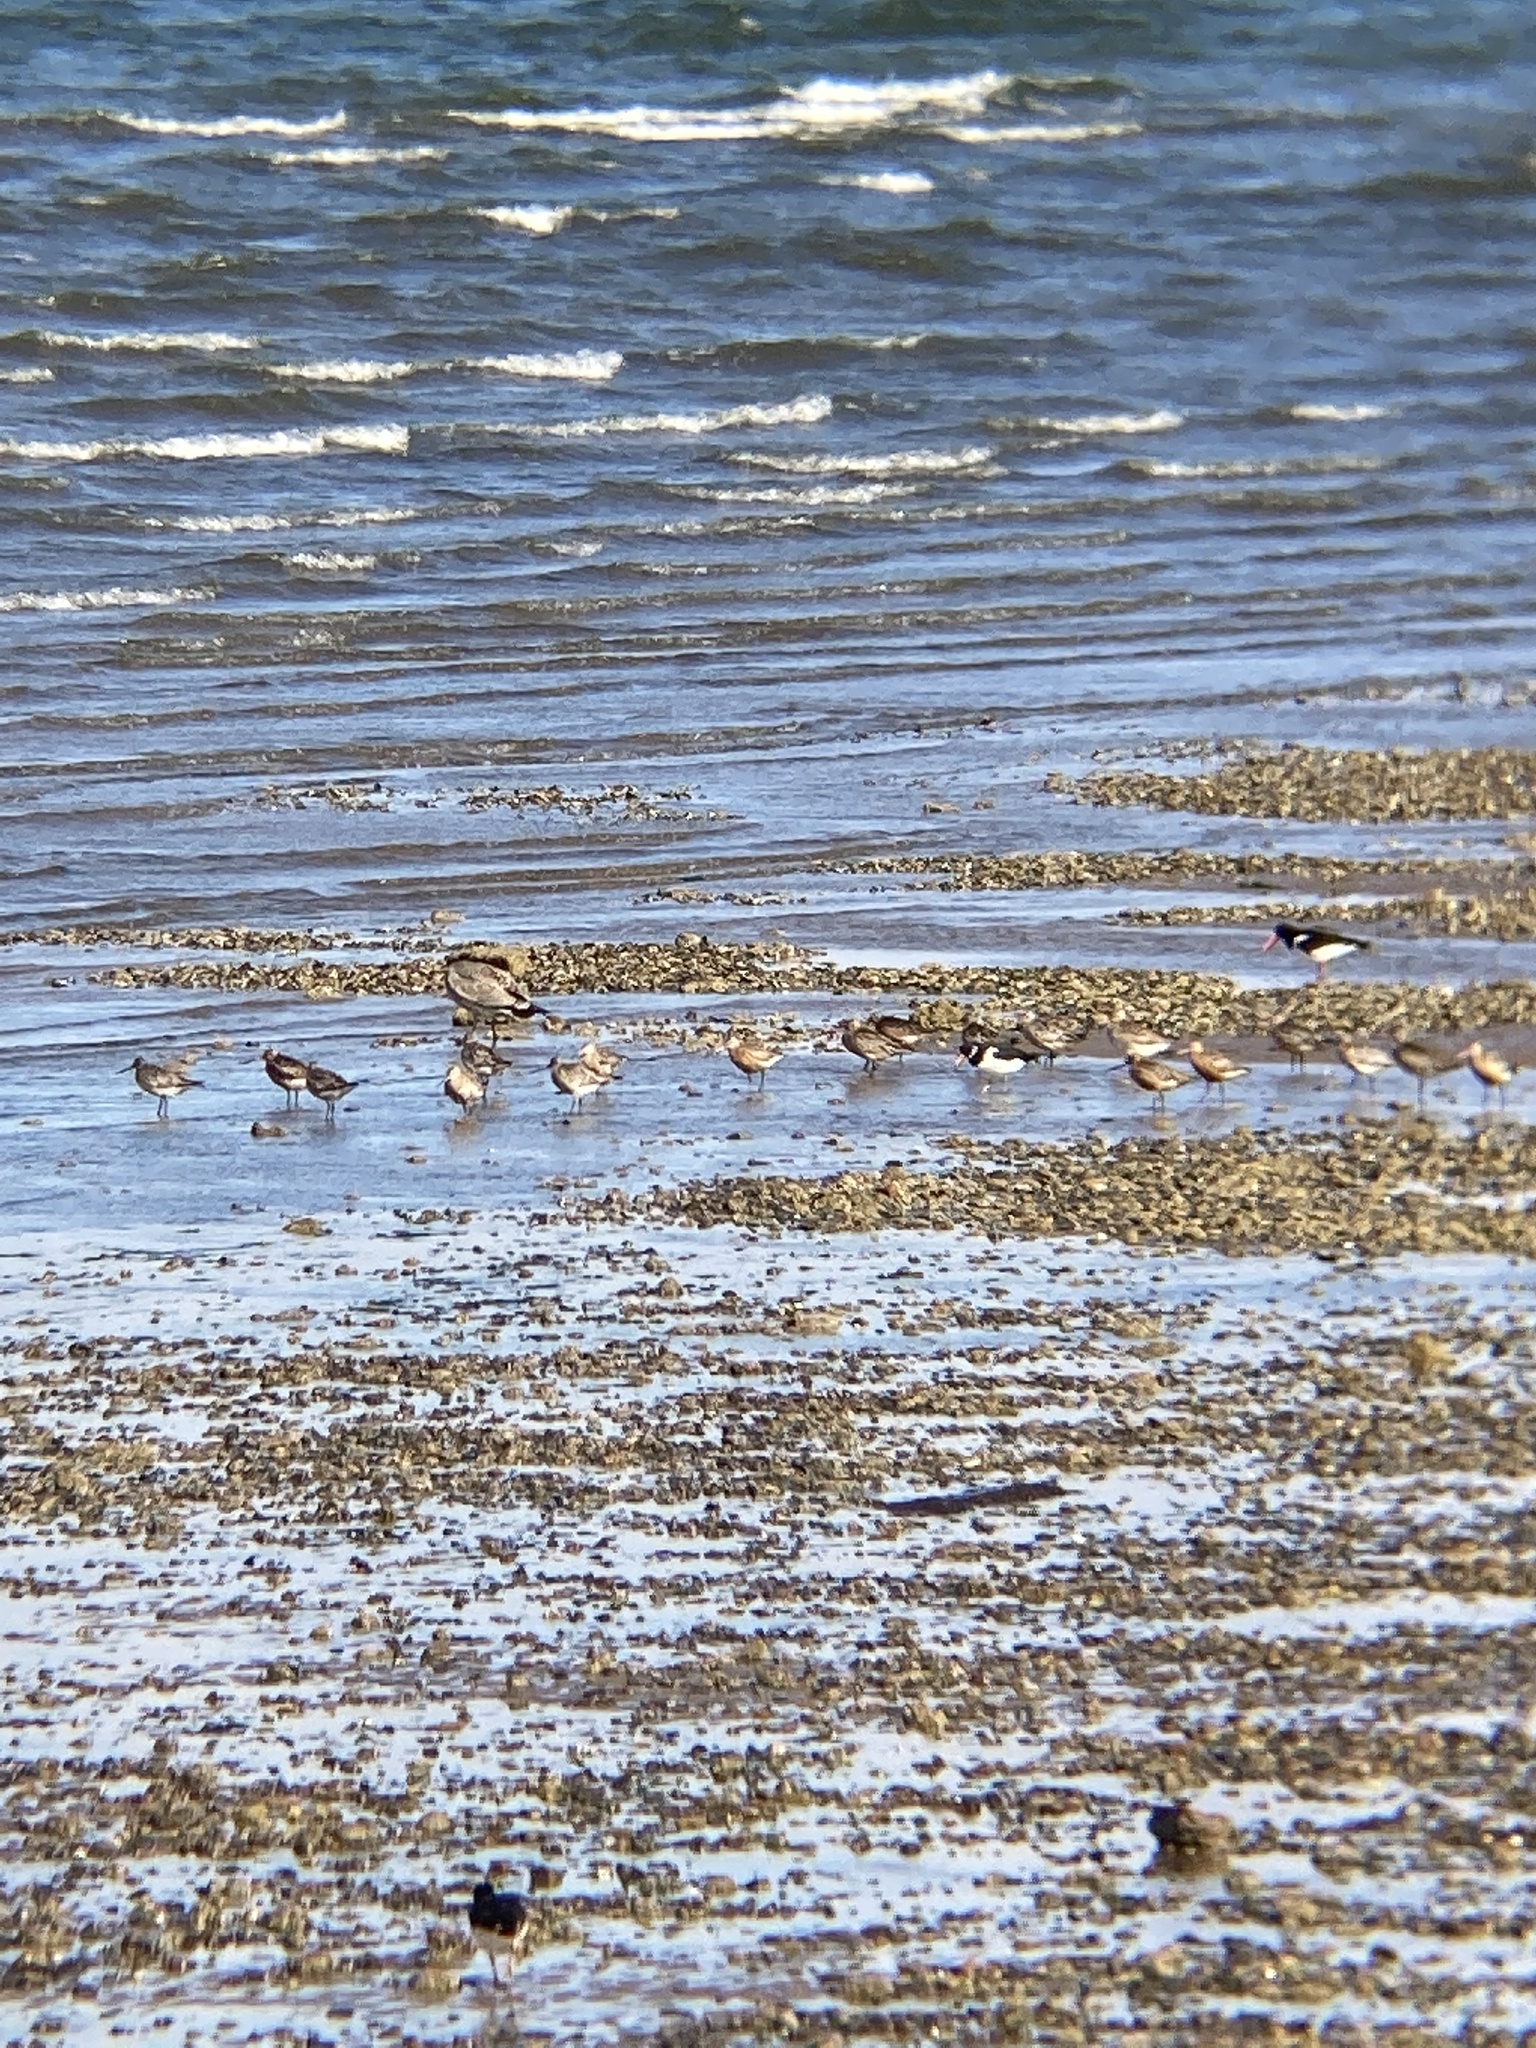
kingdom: Animalia
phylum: Chordata
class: Aves
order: Charadriiformes
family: Scolopacidae
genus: Limosa
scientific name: Limosa lapponica
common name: Bar-tailed godwit
